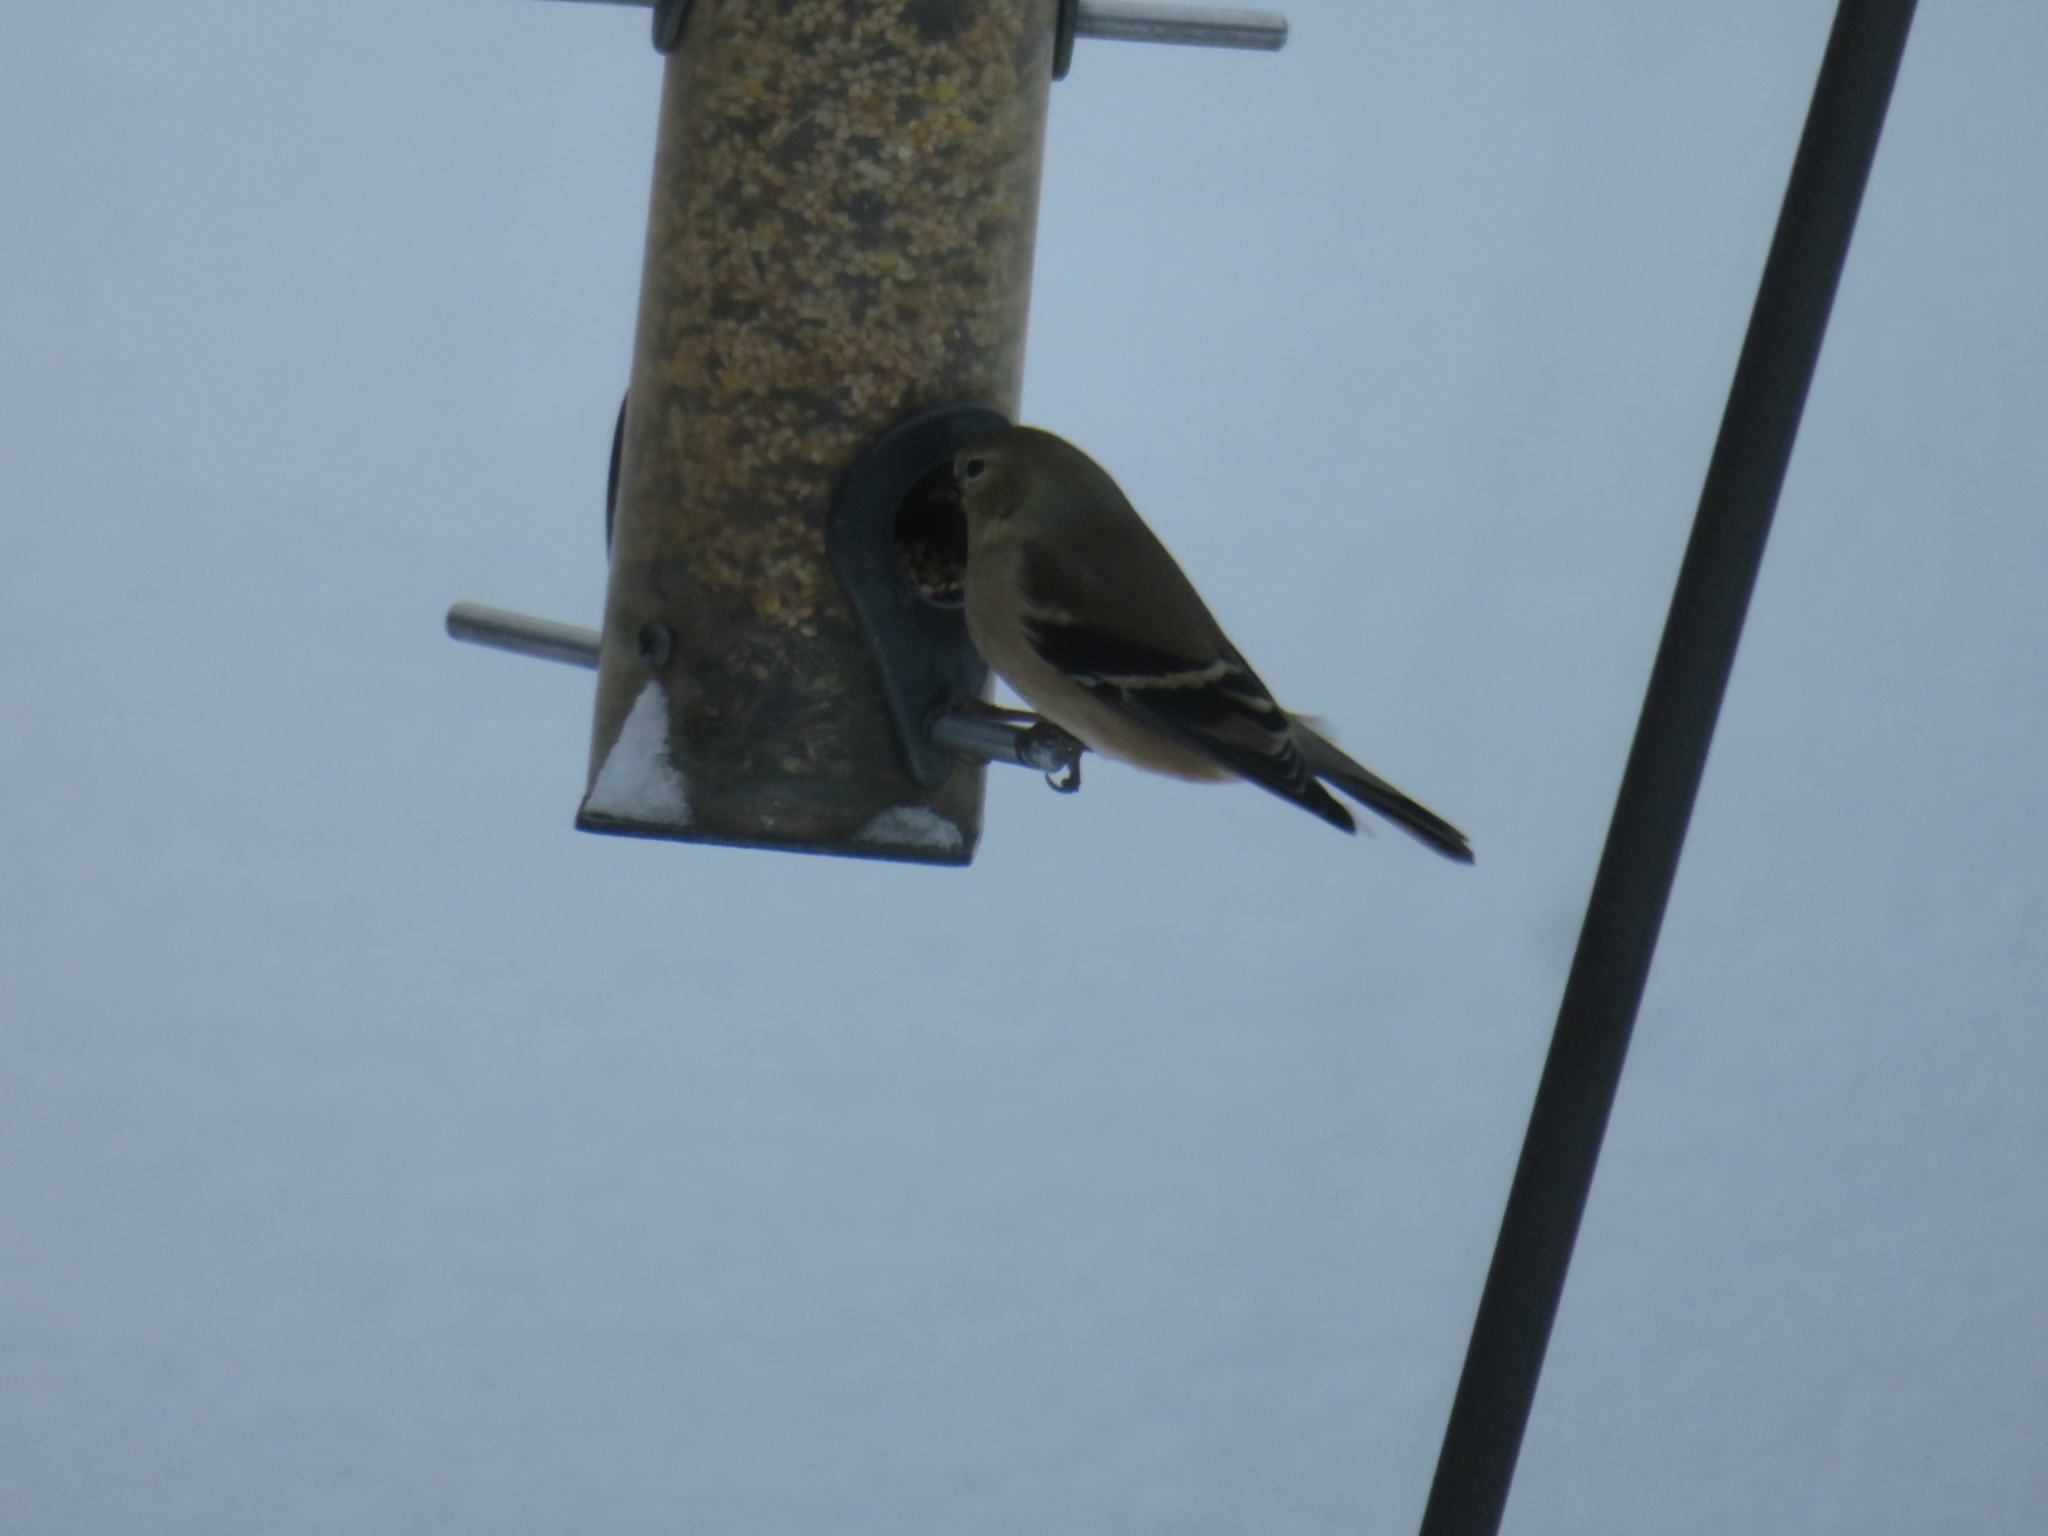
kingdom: Animalia
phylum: Chordata
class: Aves
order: Passeriformes
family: Fringillidae
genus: Spinus
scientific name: Spinus tristis
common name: American goldfinch
